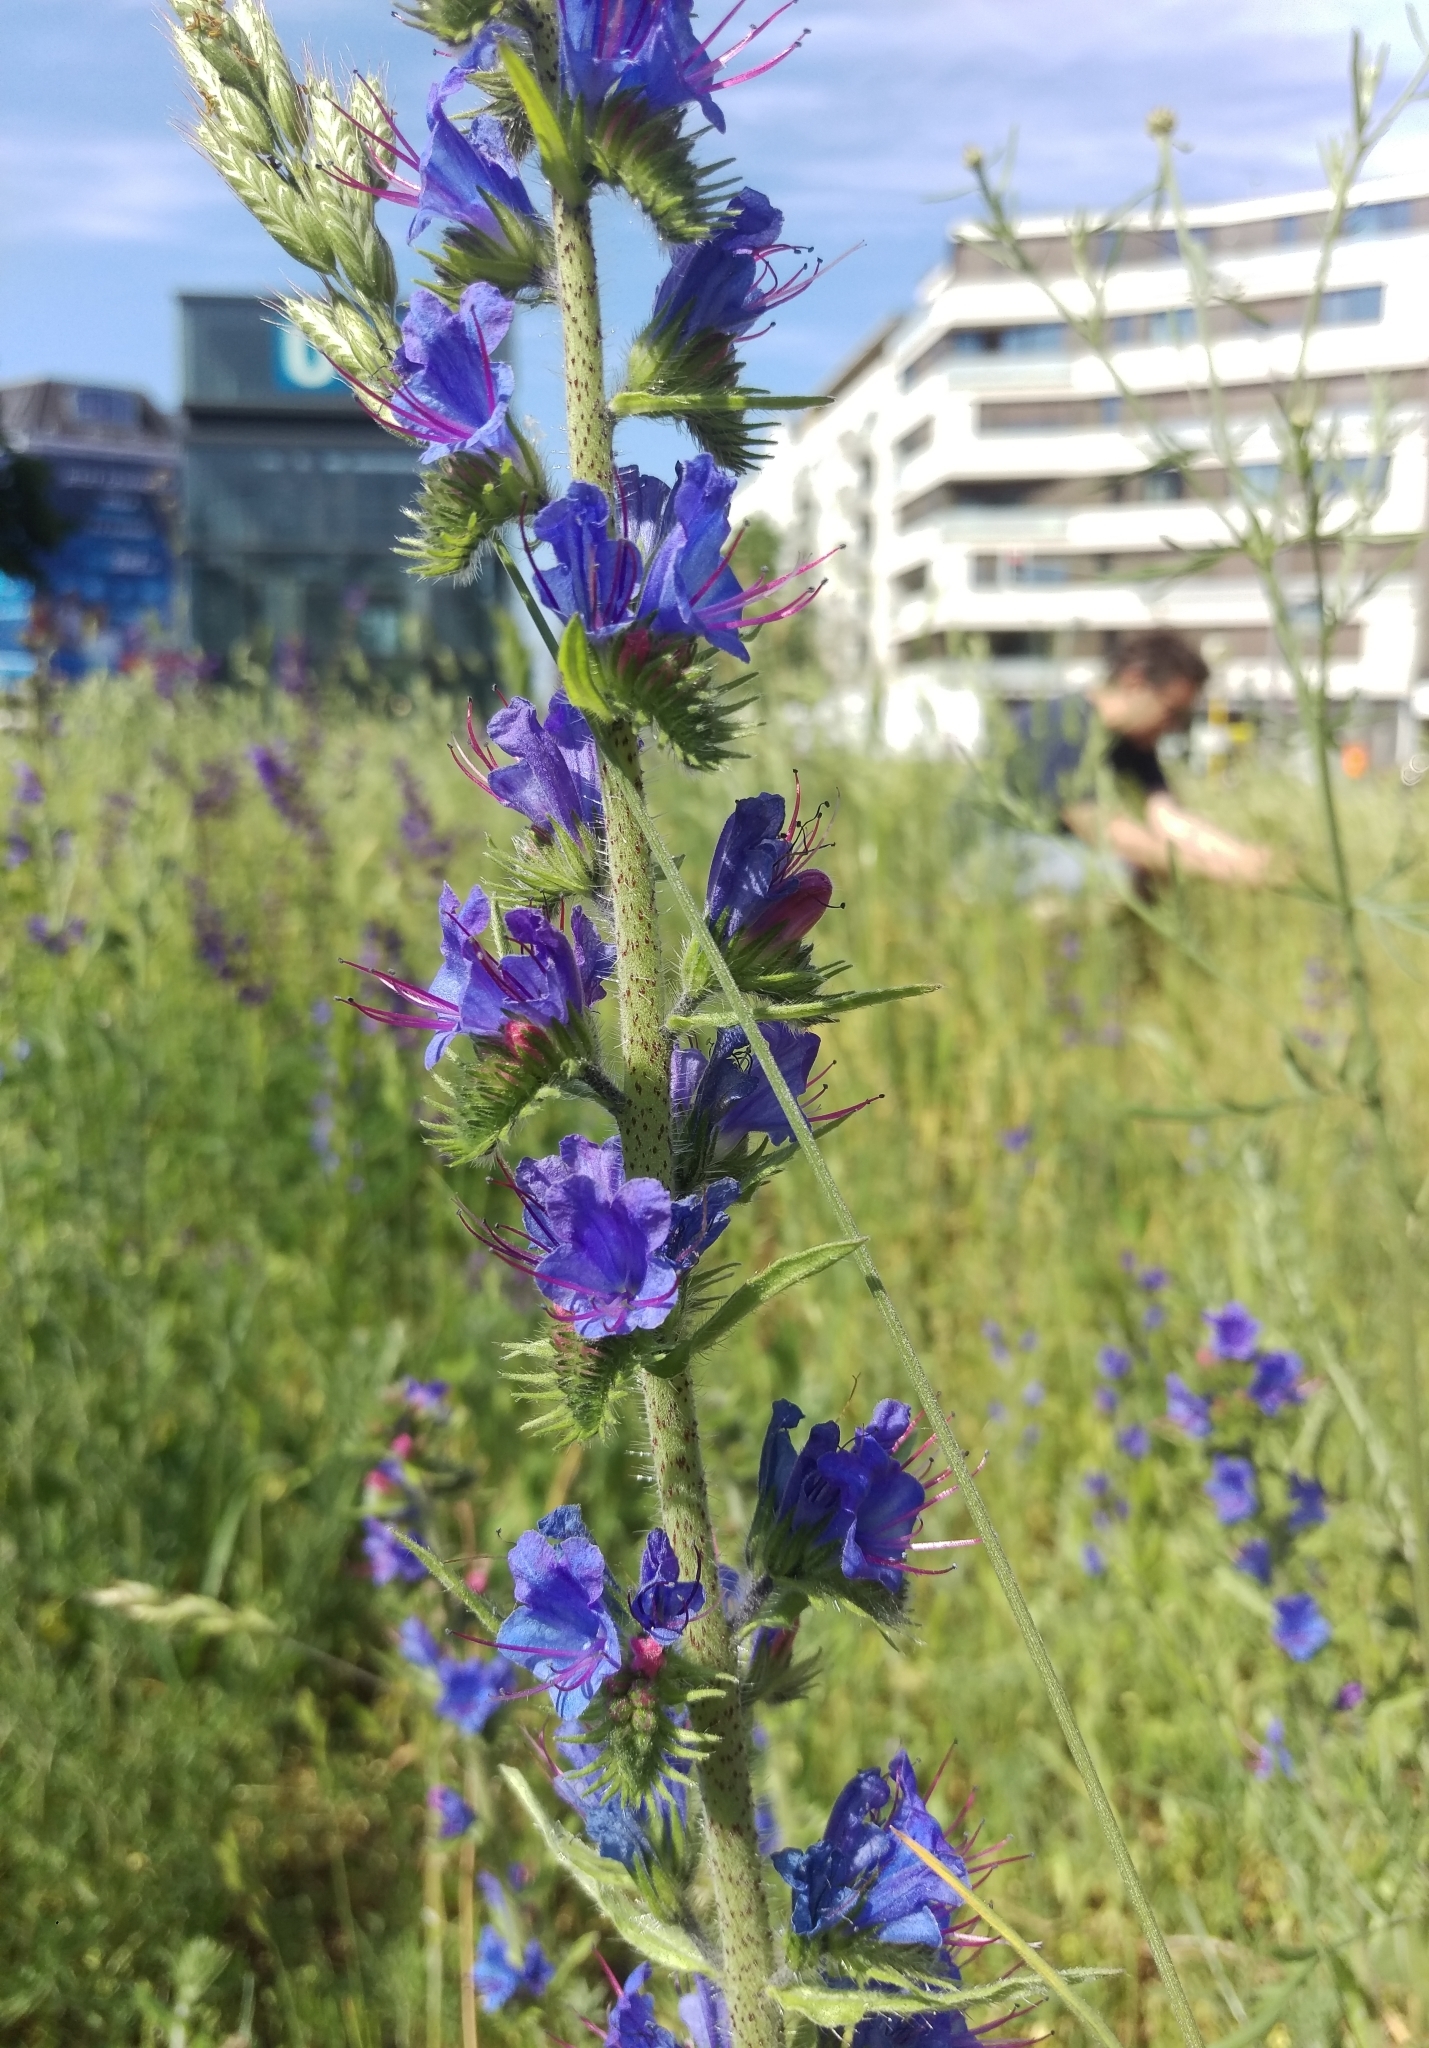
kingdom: Plantae
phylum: Tracheophyta
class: Magnoliopsida
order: Boraginales
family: Boraginaceae
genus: Echium
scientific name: Echium vulgare
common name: Common viper's bugloss
